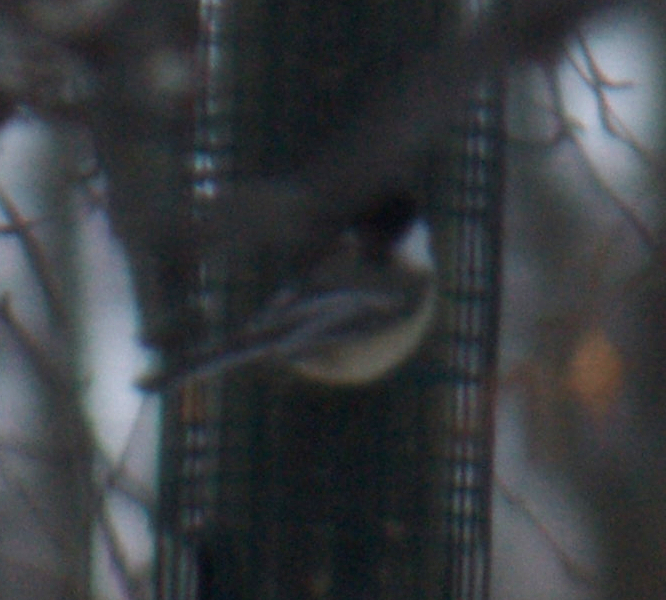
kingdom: Animalia
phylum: Chordata
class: Aves
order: Passeriformes
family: Paridae
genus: Poecile
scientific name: Poecile atricapillus
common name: Black-capped chickadee
